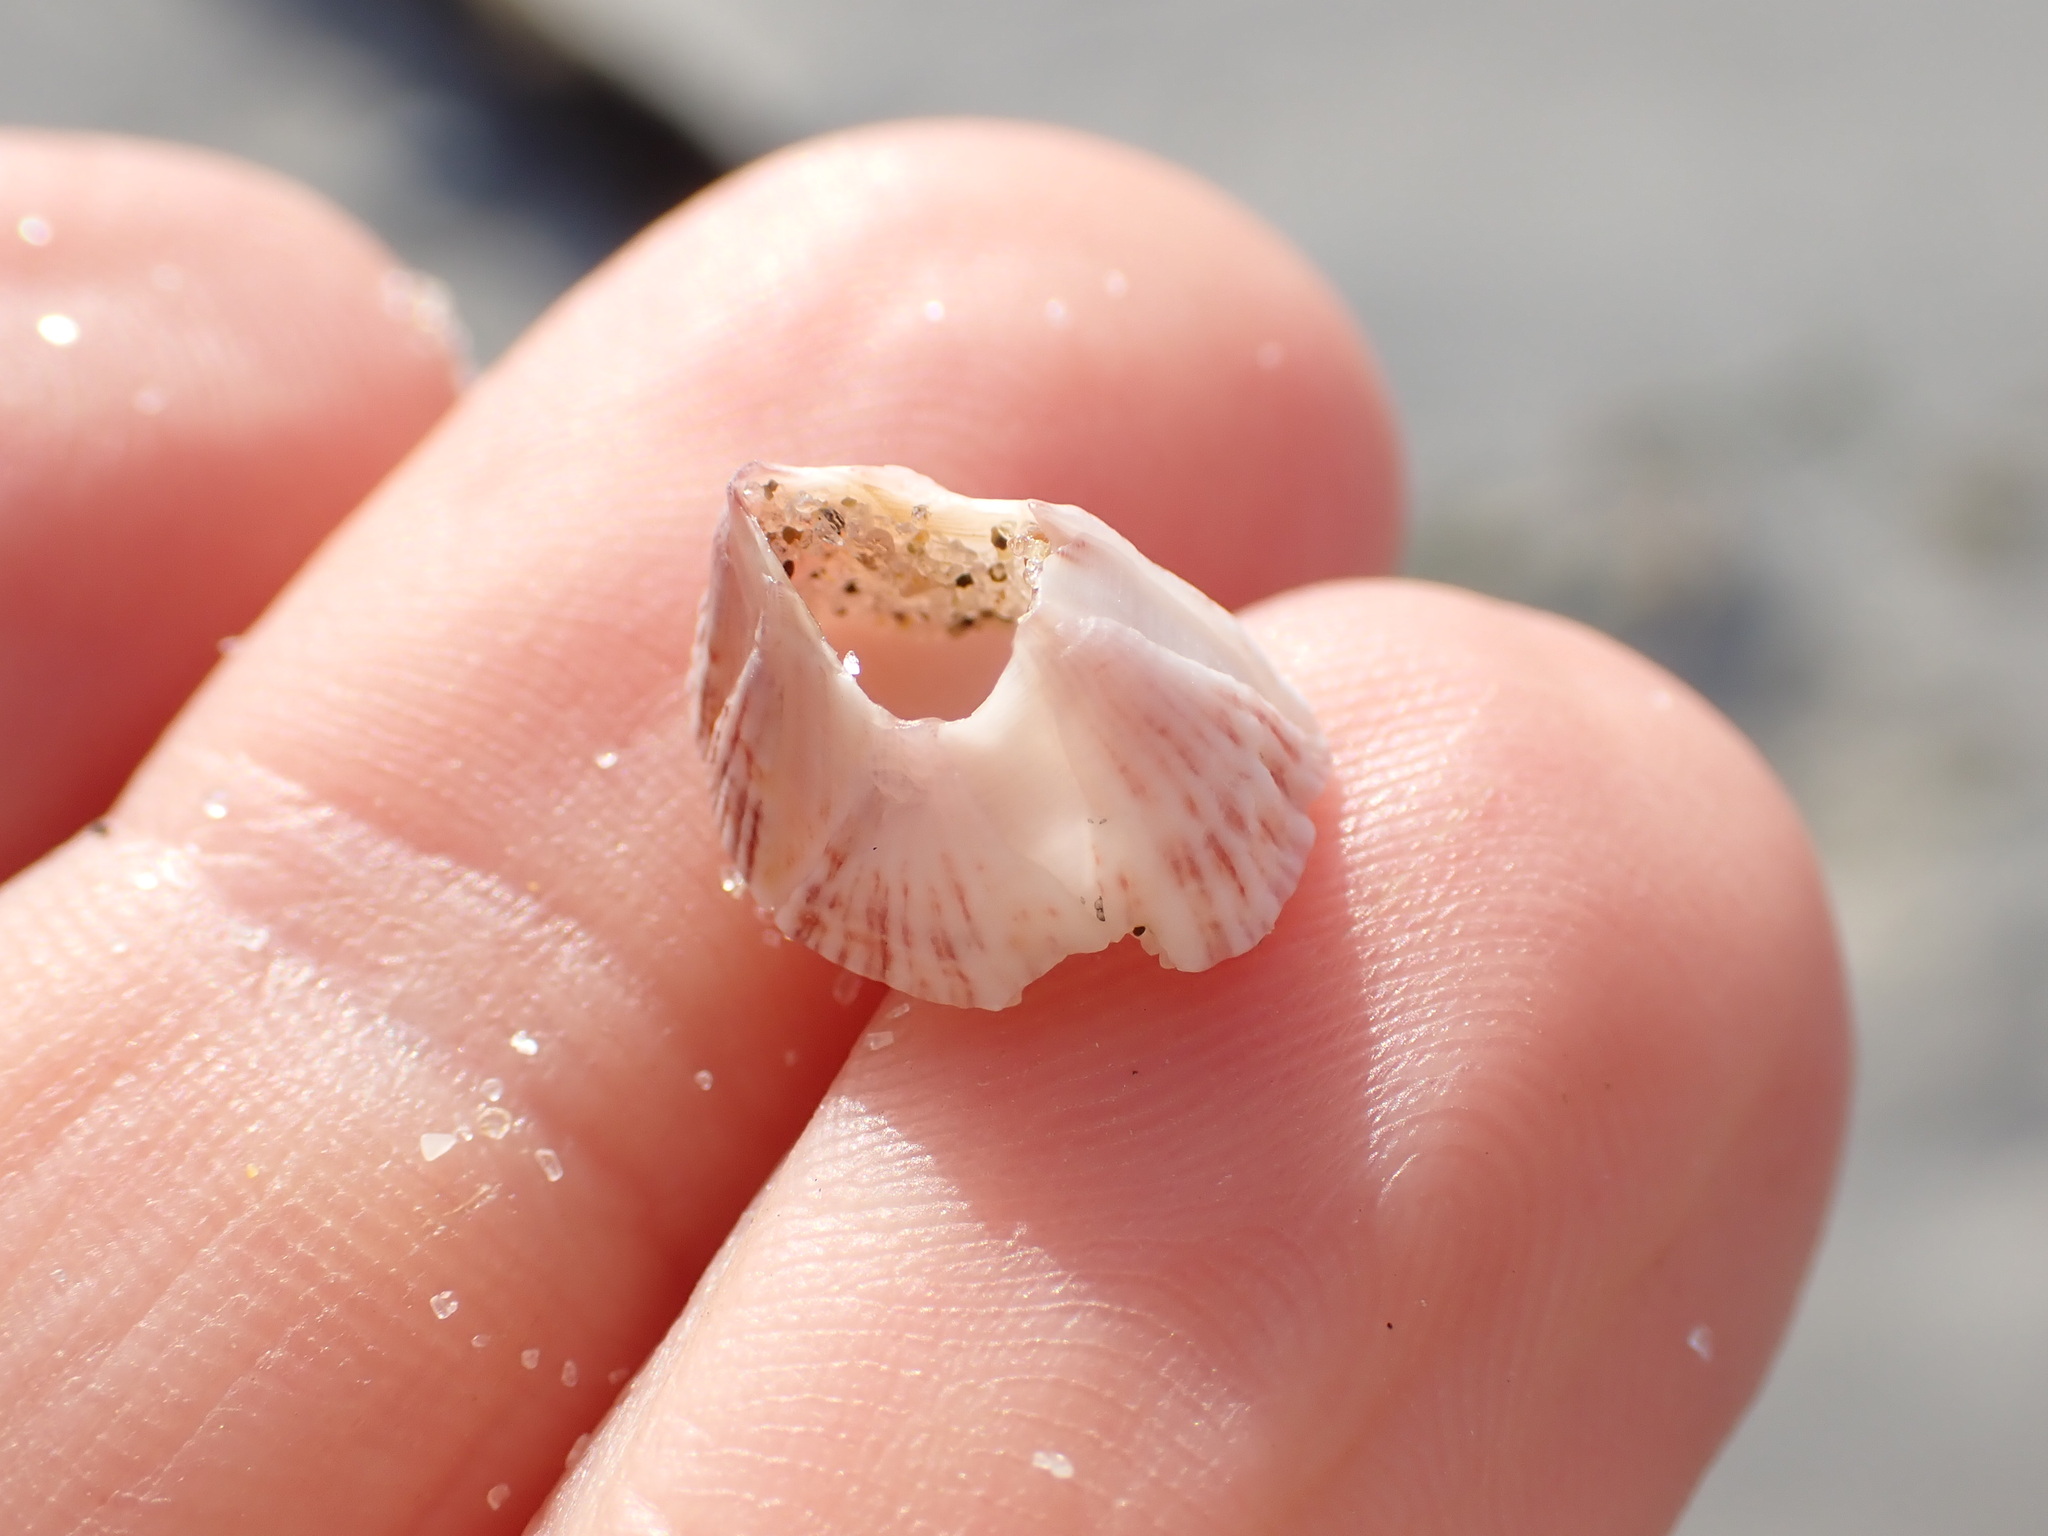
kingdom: Animalia
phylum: Arthropoda
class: Maxillopoda
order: Sessilia
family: Balanidae
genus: Balanus
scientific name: Balanus trigonus
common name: Triangle barnacle
